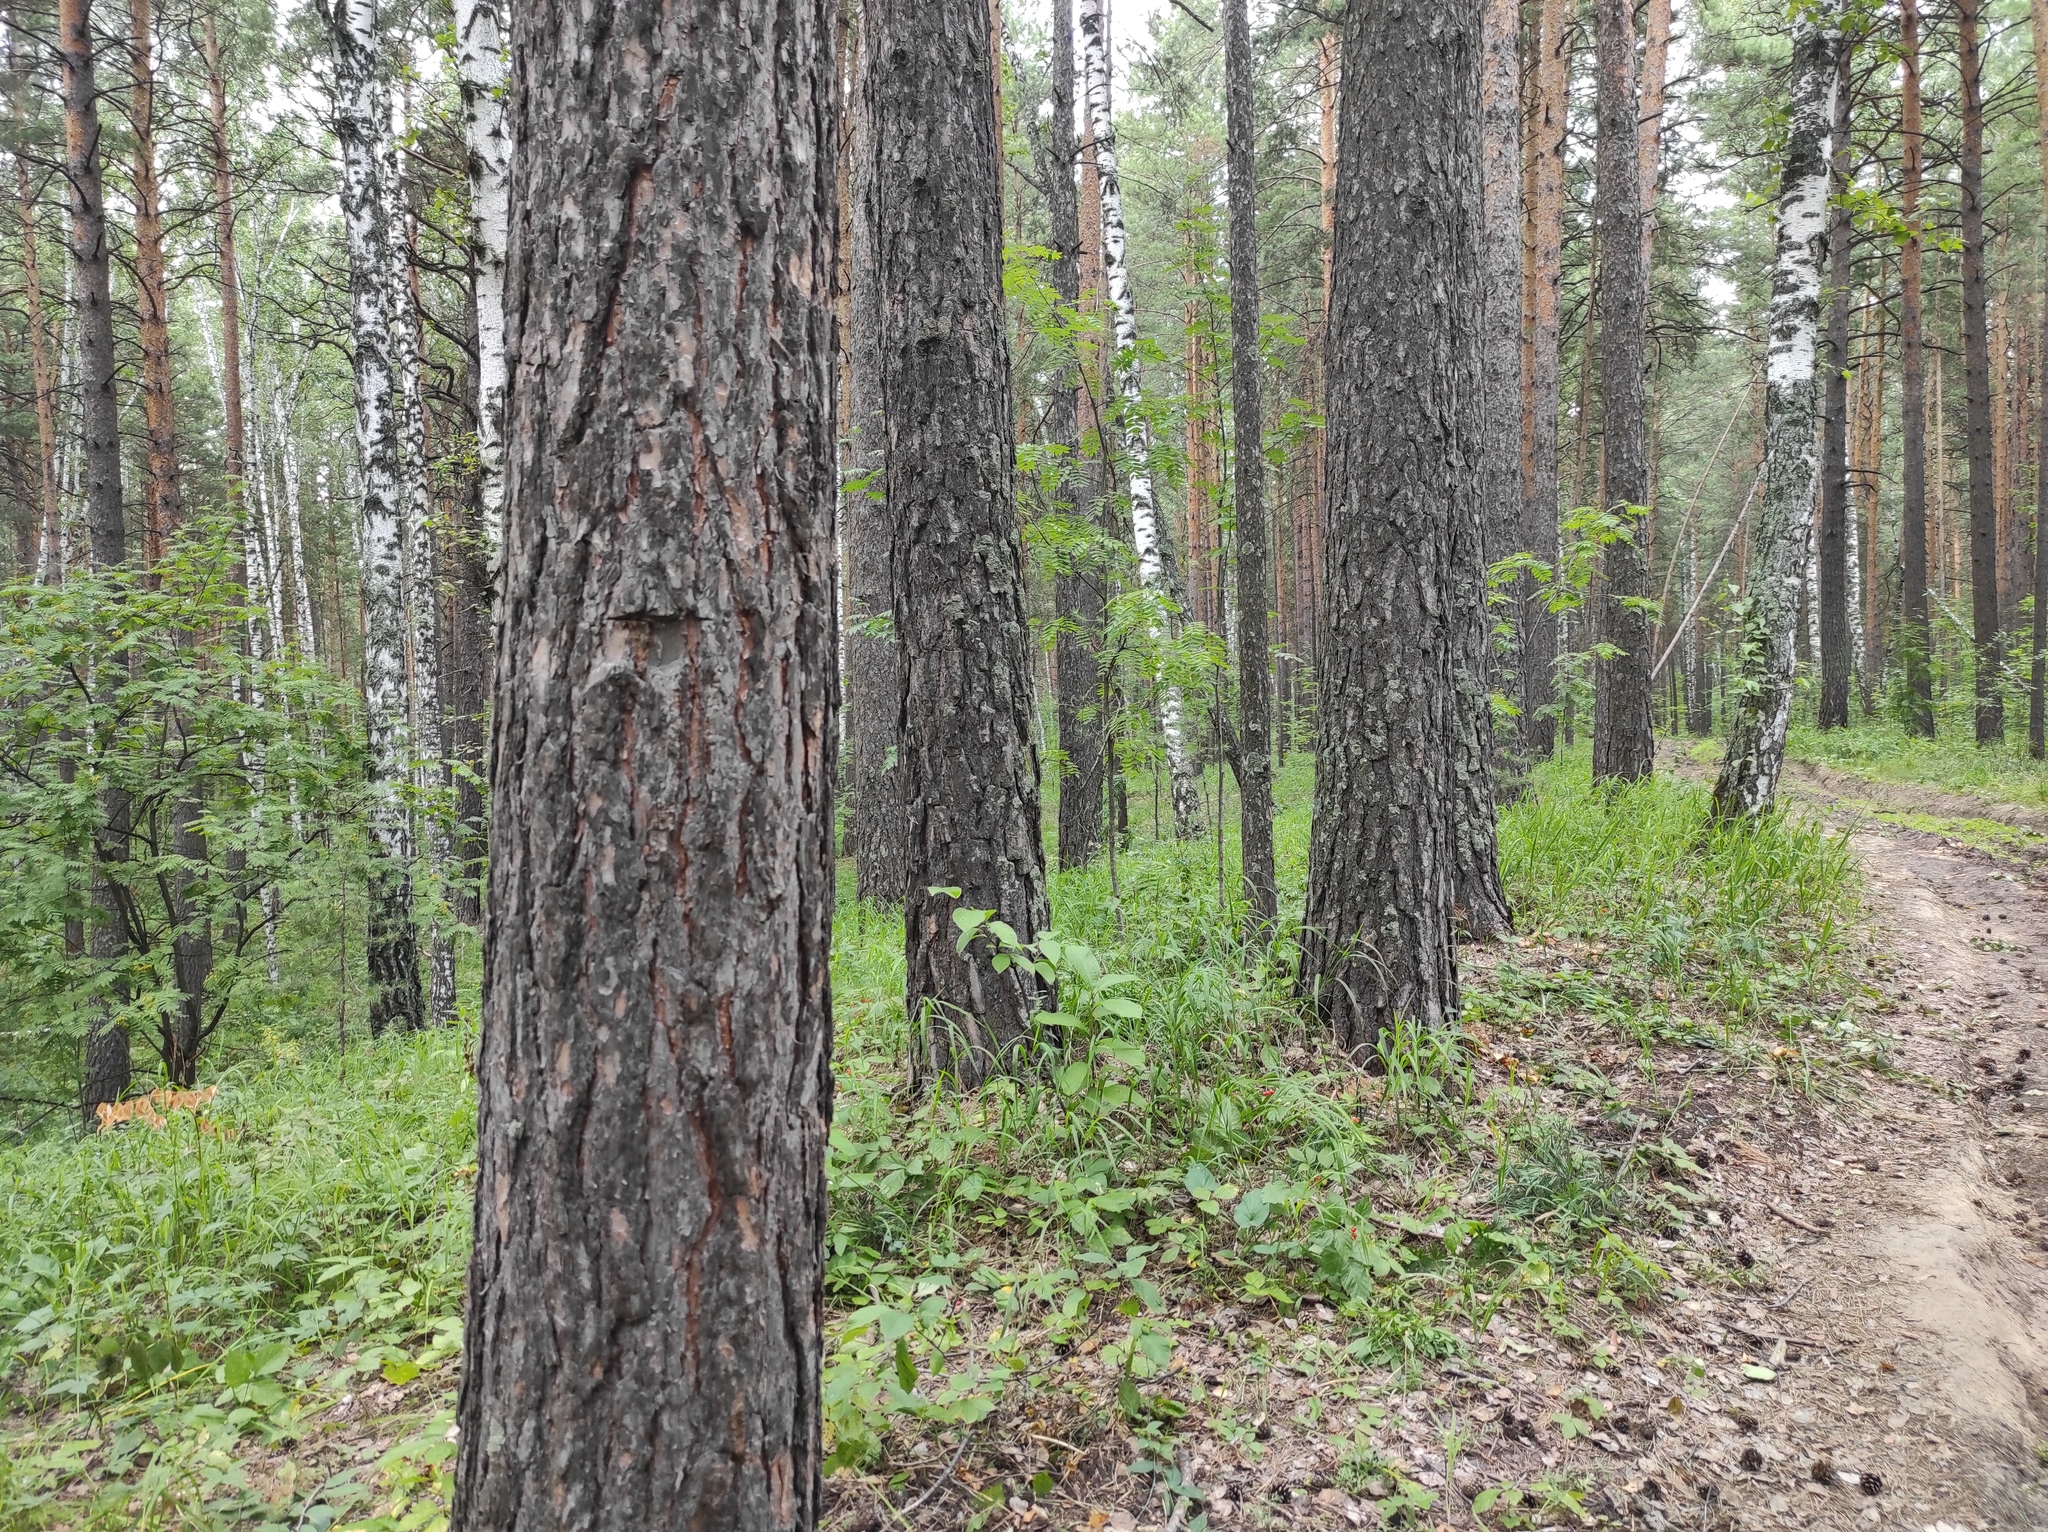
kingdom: Plantae
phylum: Tracheophyta
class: Magnoliopsida
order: Fagales
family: Betulaceae
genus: Betula
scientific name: Betula pendula
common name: Silver birch
